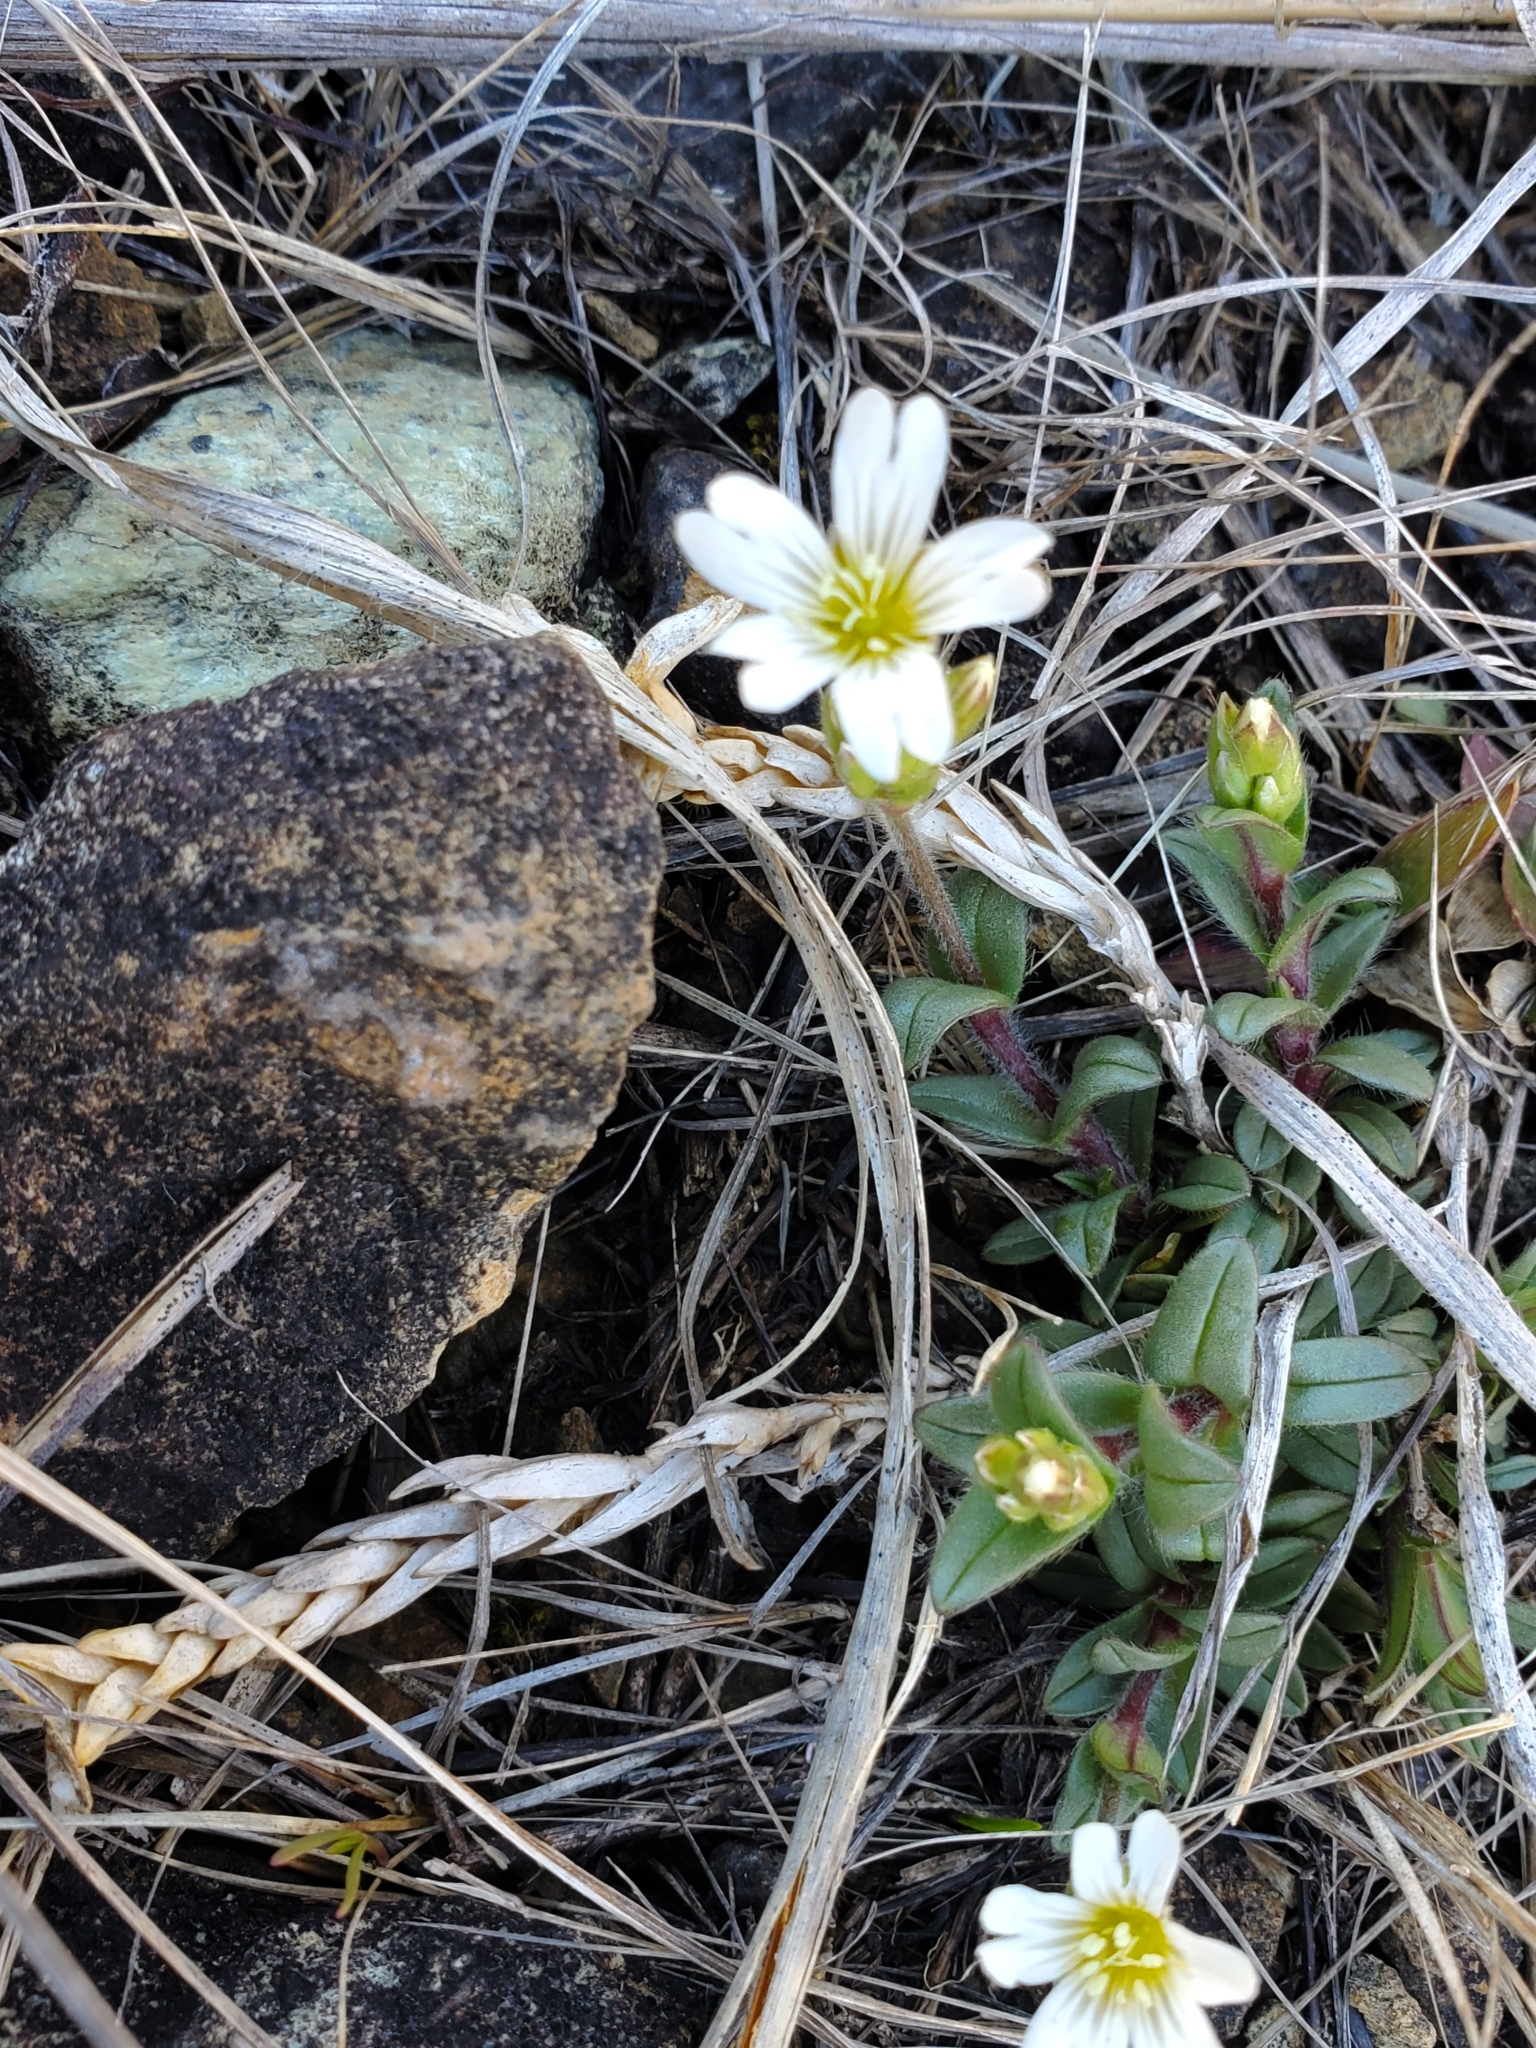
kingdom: Plantae
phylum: Tracheophyta
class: Magnoliopsida
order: Caryophyllales
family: Caryophyllaceae
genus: Cerastium
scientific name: Cerastium velutinum
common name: Barren chickweed
